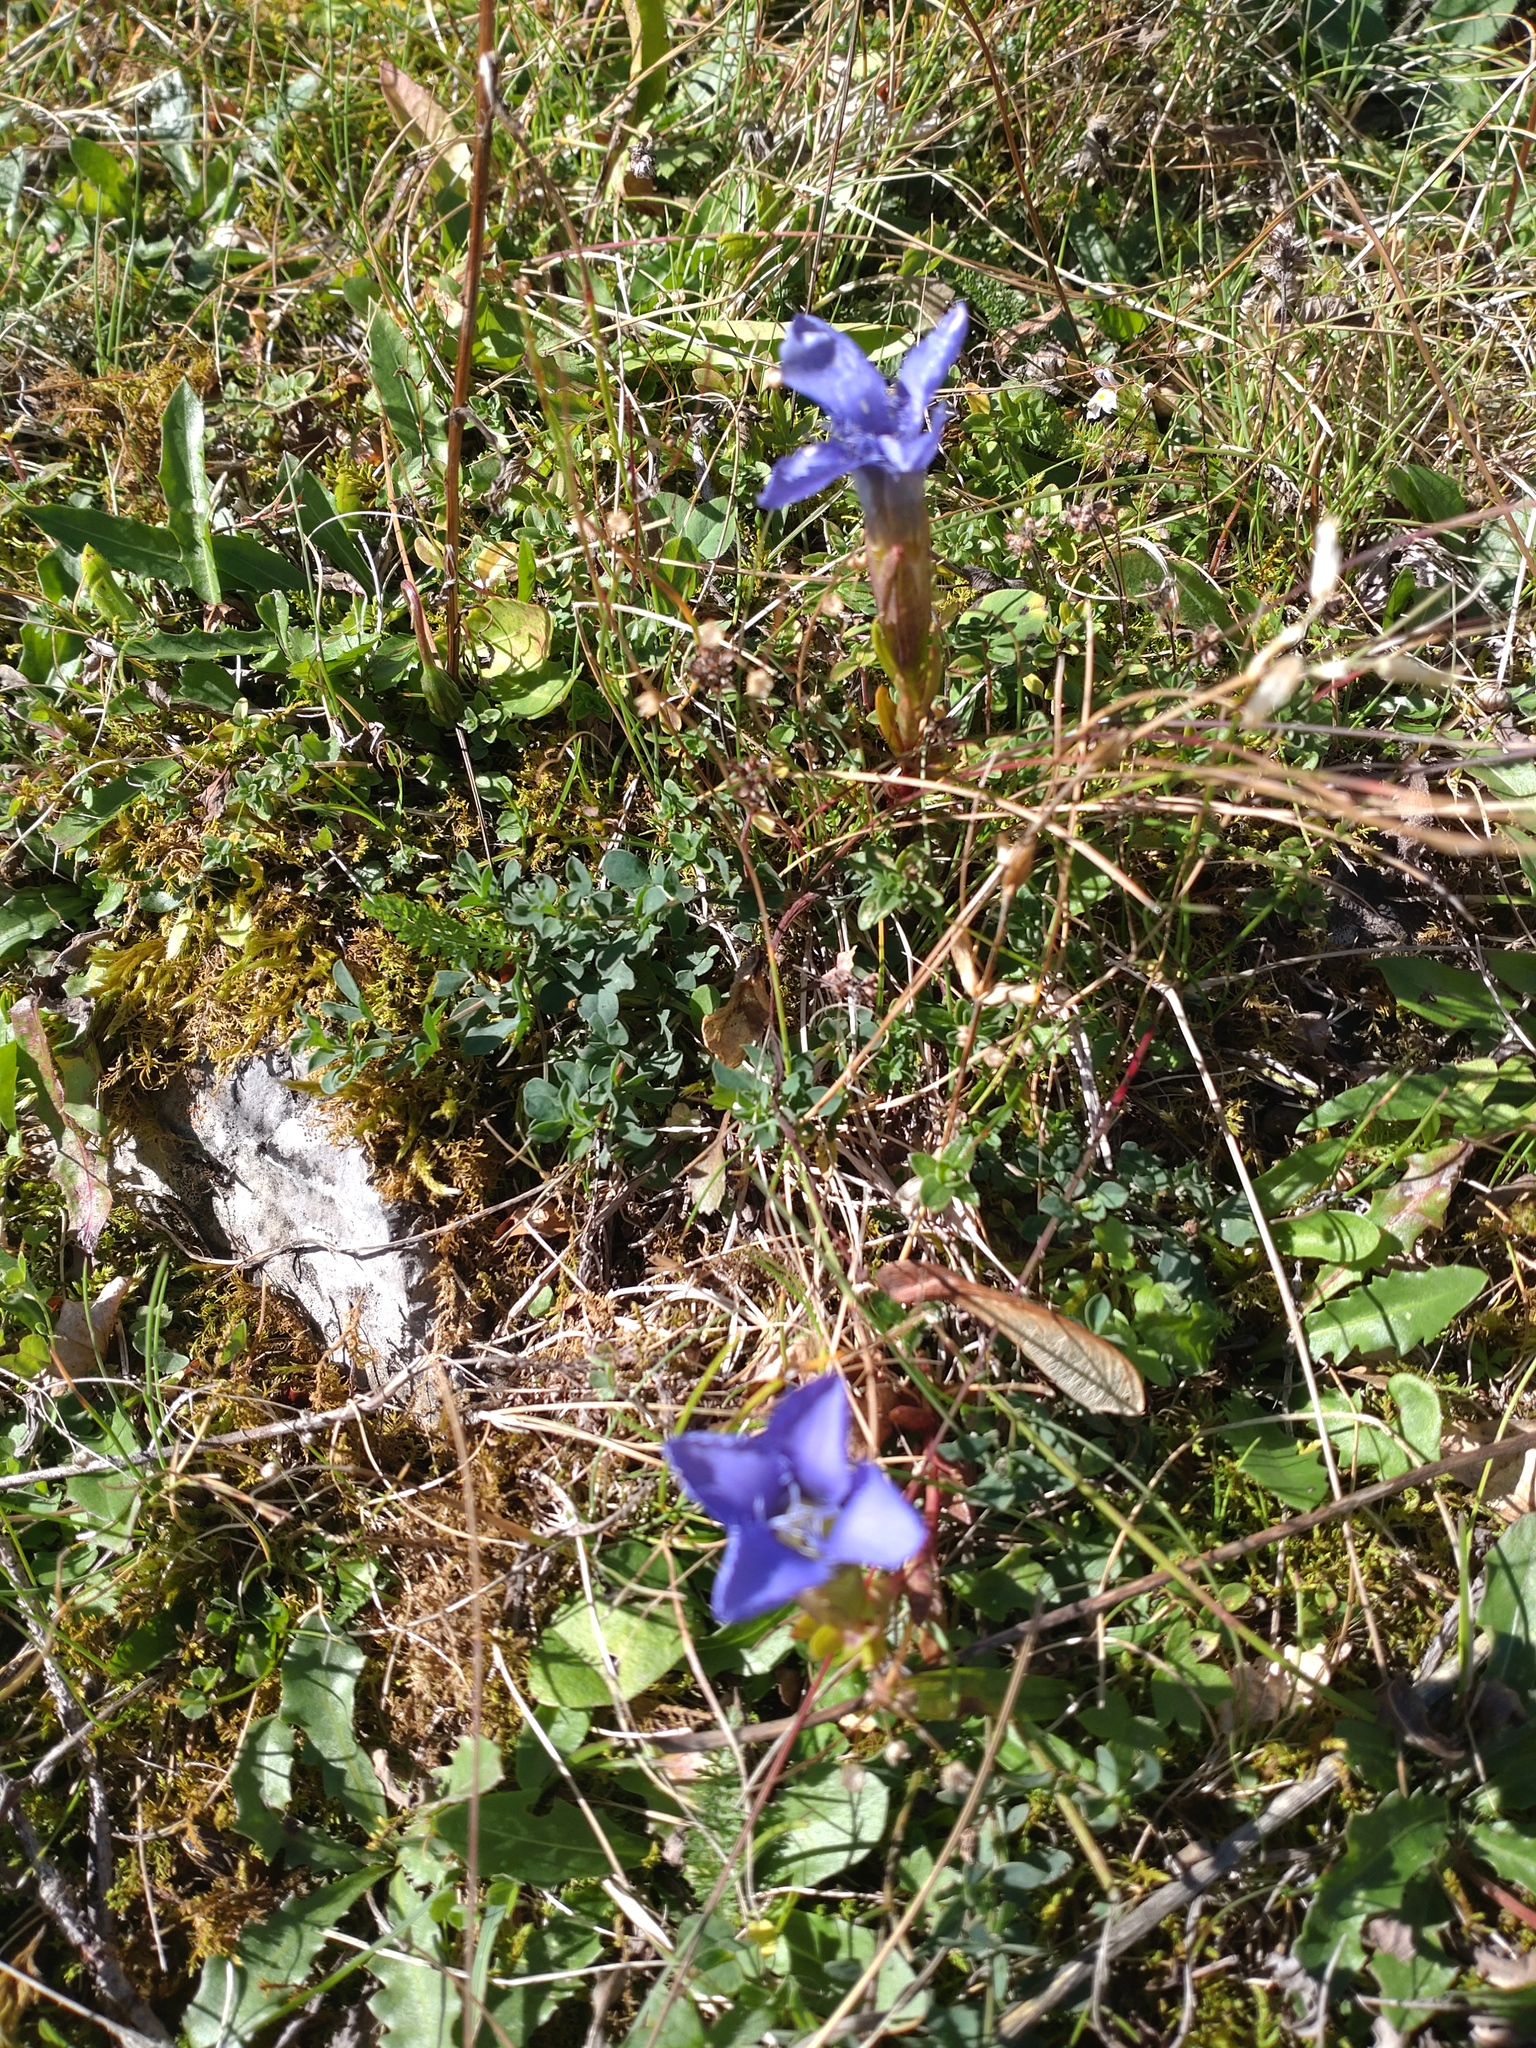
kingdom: Plantae
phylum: Tracheophyta
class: Magnoliopsida
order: Gentianales
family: Gentianaceae
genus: Gentianopsis
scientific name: Gentianopsis ciliata
